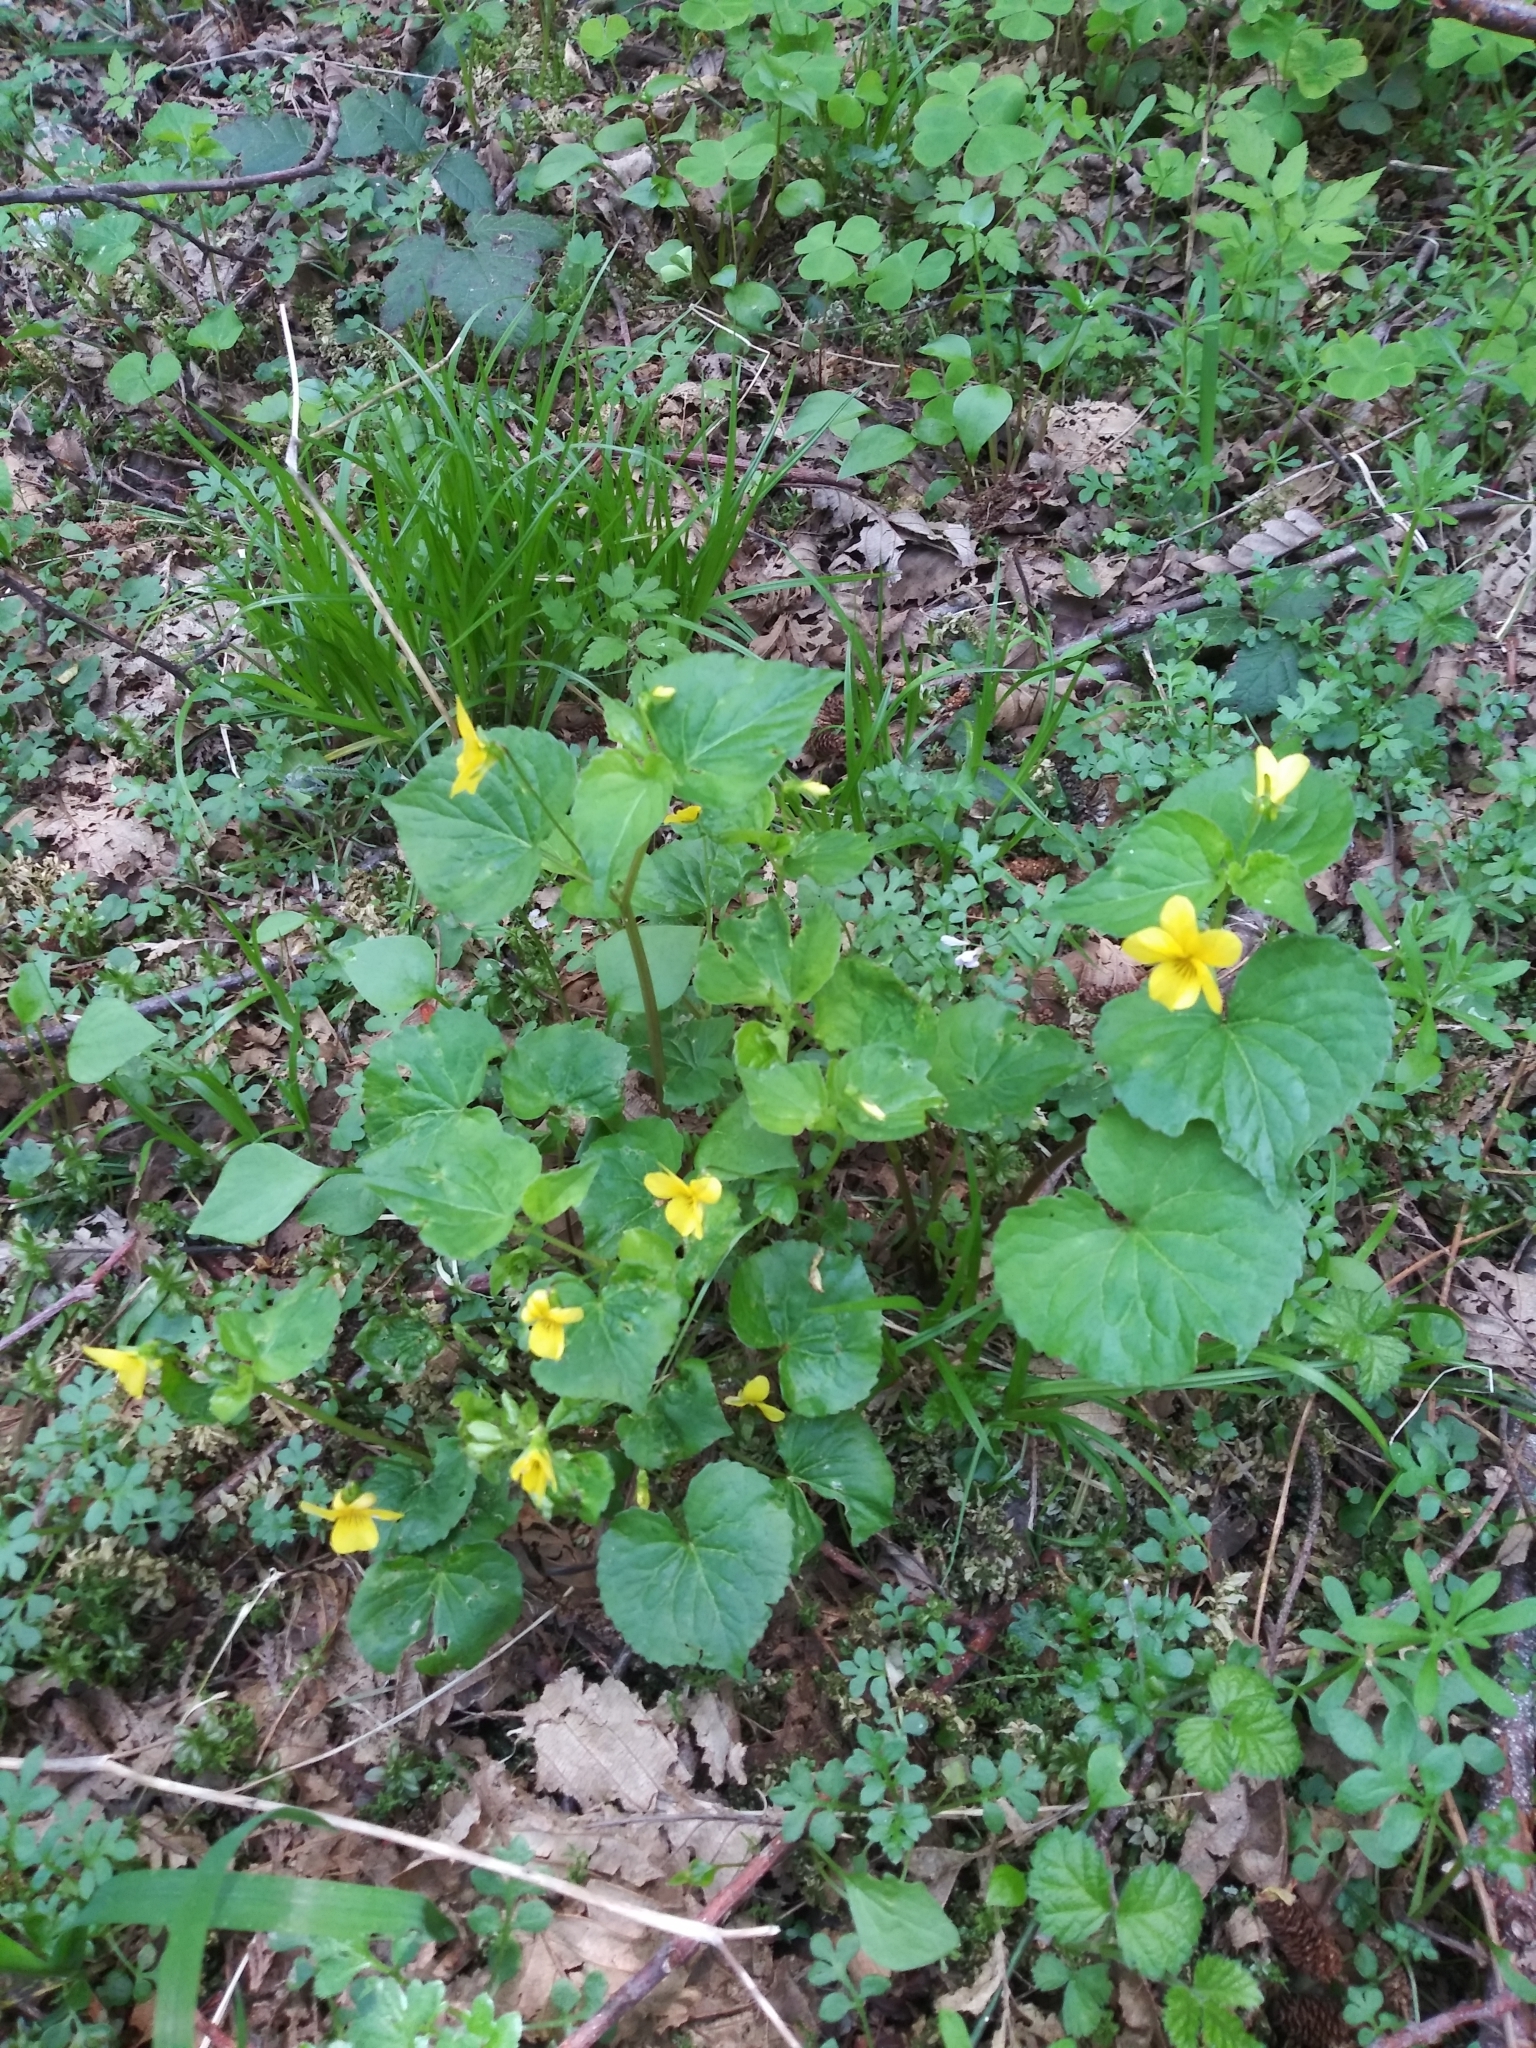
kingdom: Plantae
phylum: Tracheophyta
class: Magnoliopsida
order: Malpighiales
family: Violaceae
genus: Viola
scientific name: Viola glabella
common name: Stream violet
